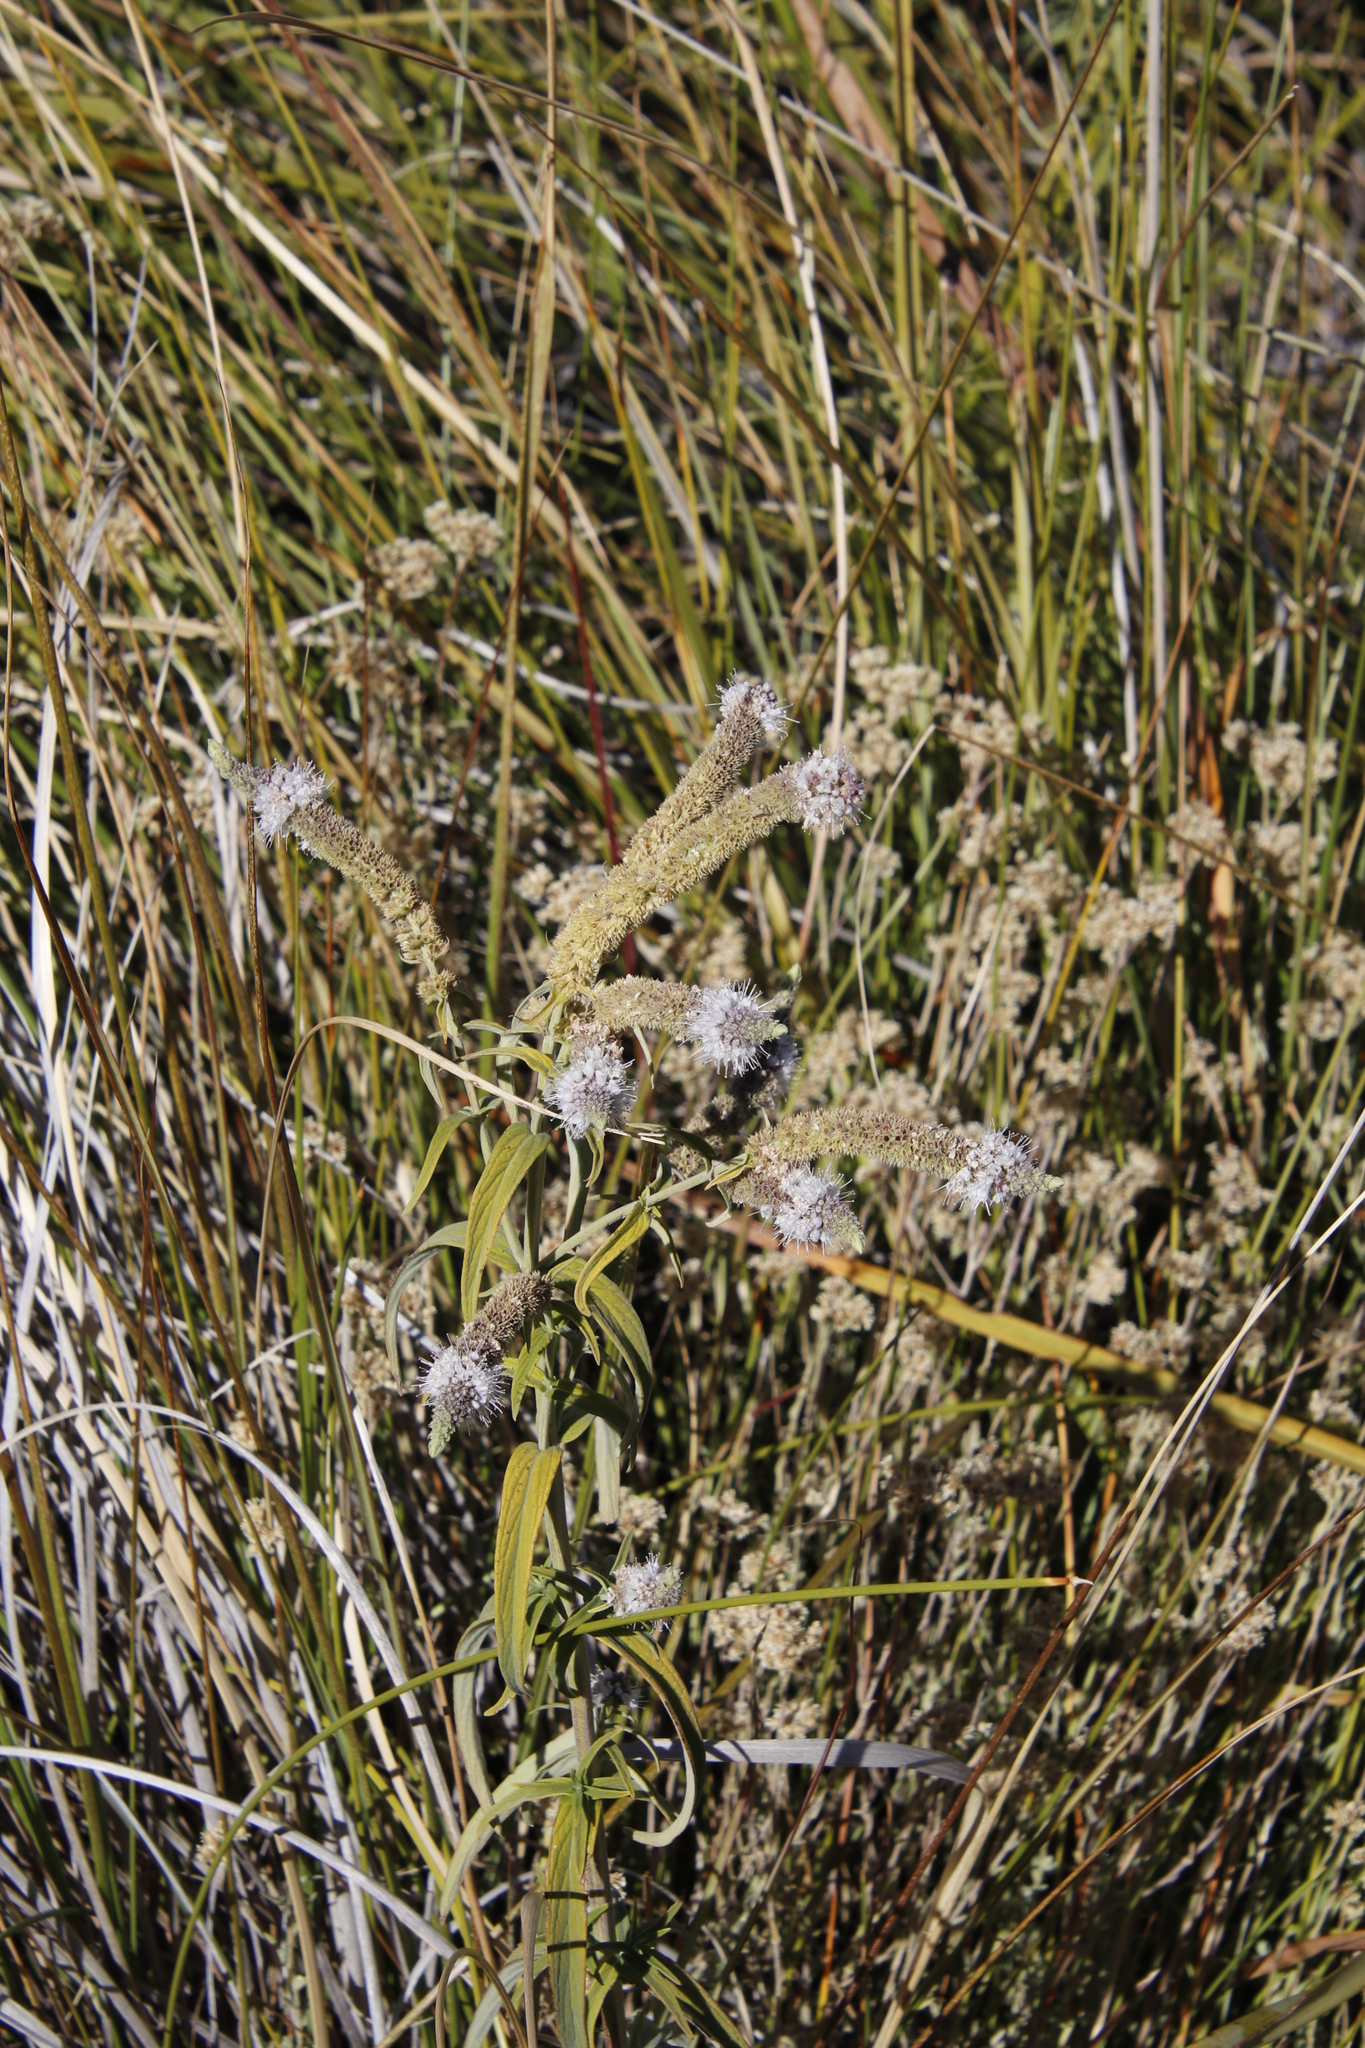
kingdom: Plantae
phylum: Tracheophyta
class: Magnoliopsida
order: Lamiales
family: Lamiaceae
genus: Mentha
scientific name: Mentha longifolia
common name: Horse mint
